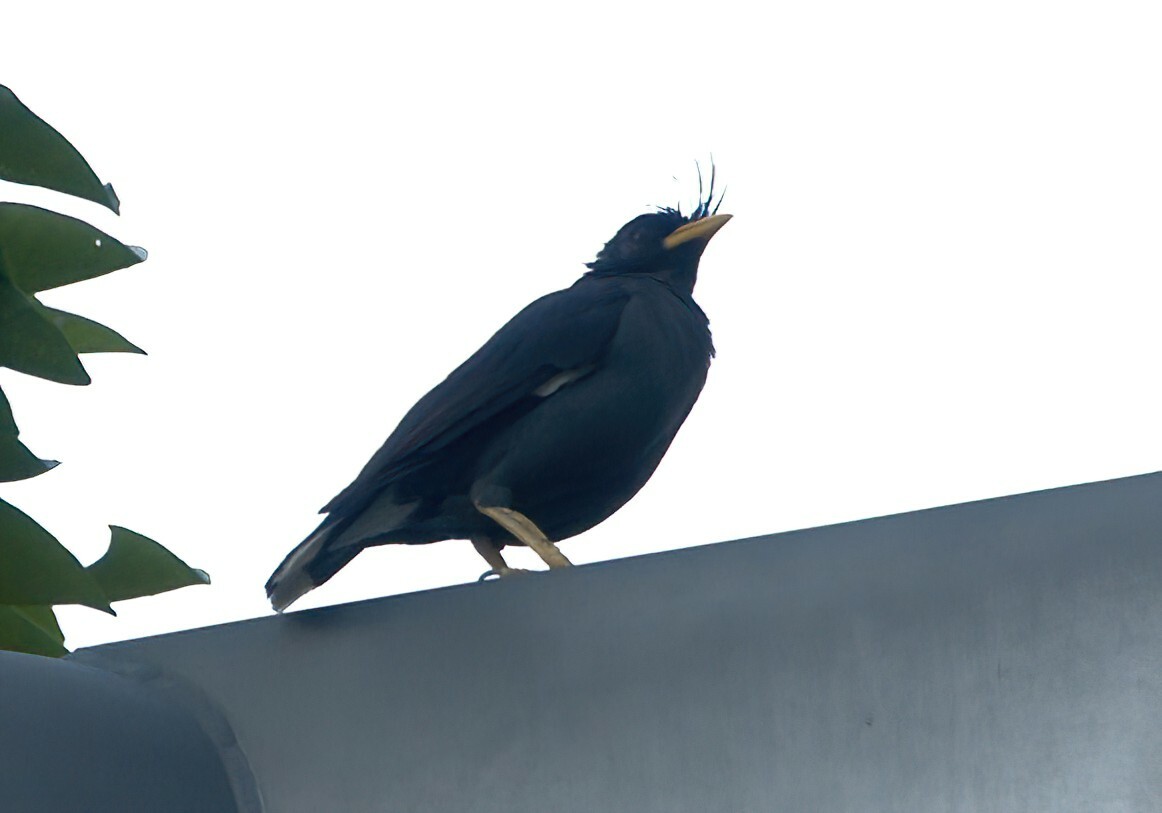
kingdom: Animalia
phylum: Chordata
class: Aves
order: Passeriformes
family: Sturnidae
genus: Acridotheres
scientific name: Acridotheres grandis
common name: Great myna
